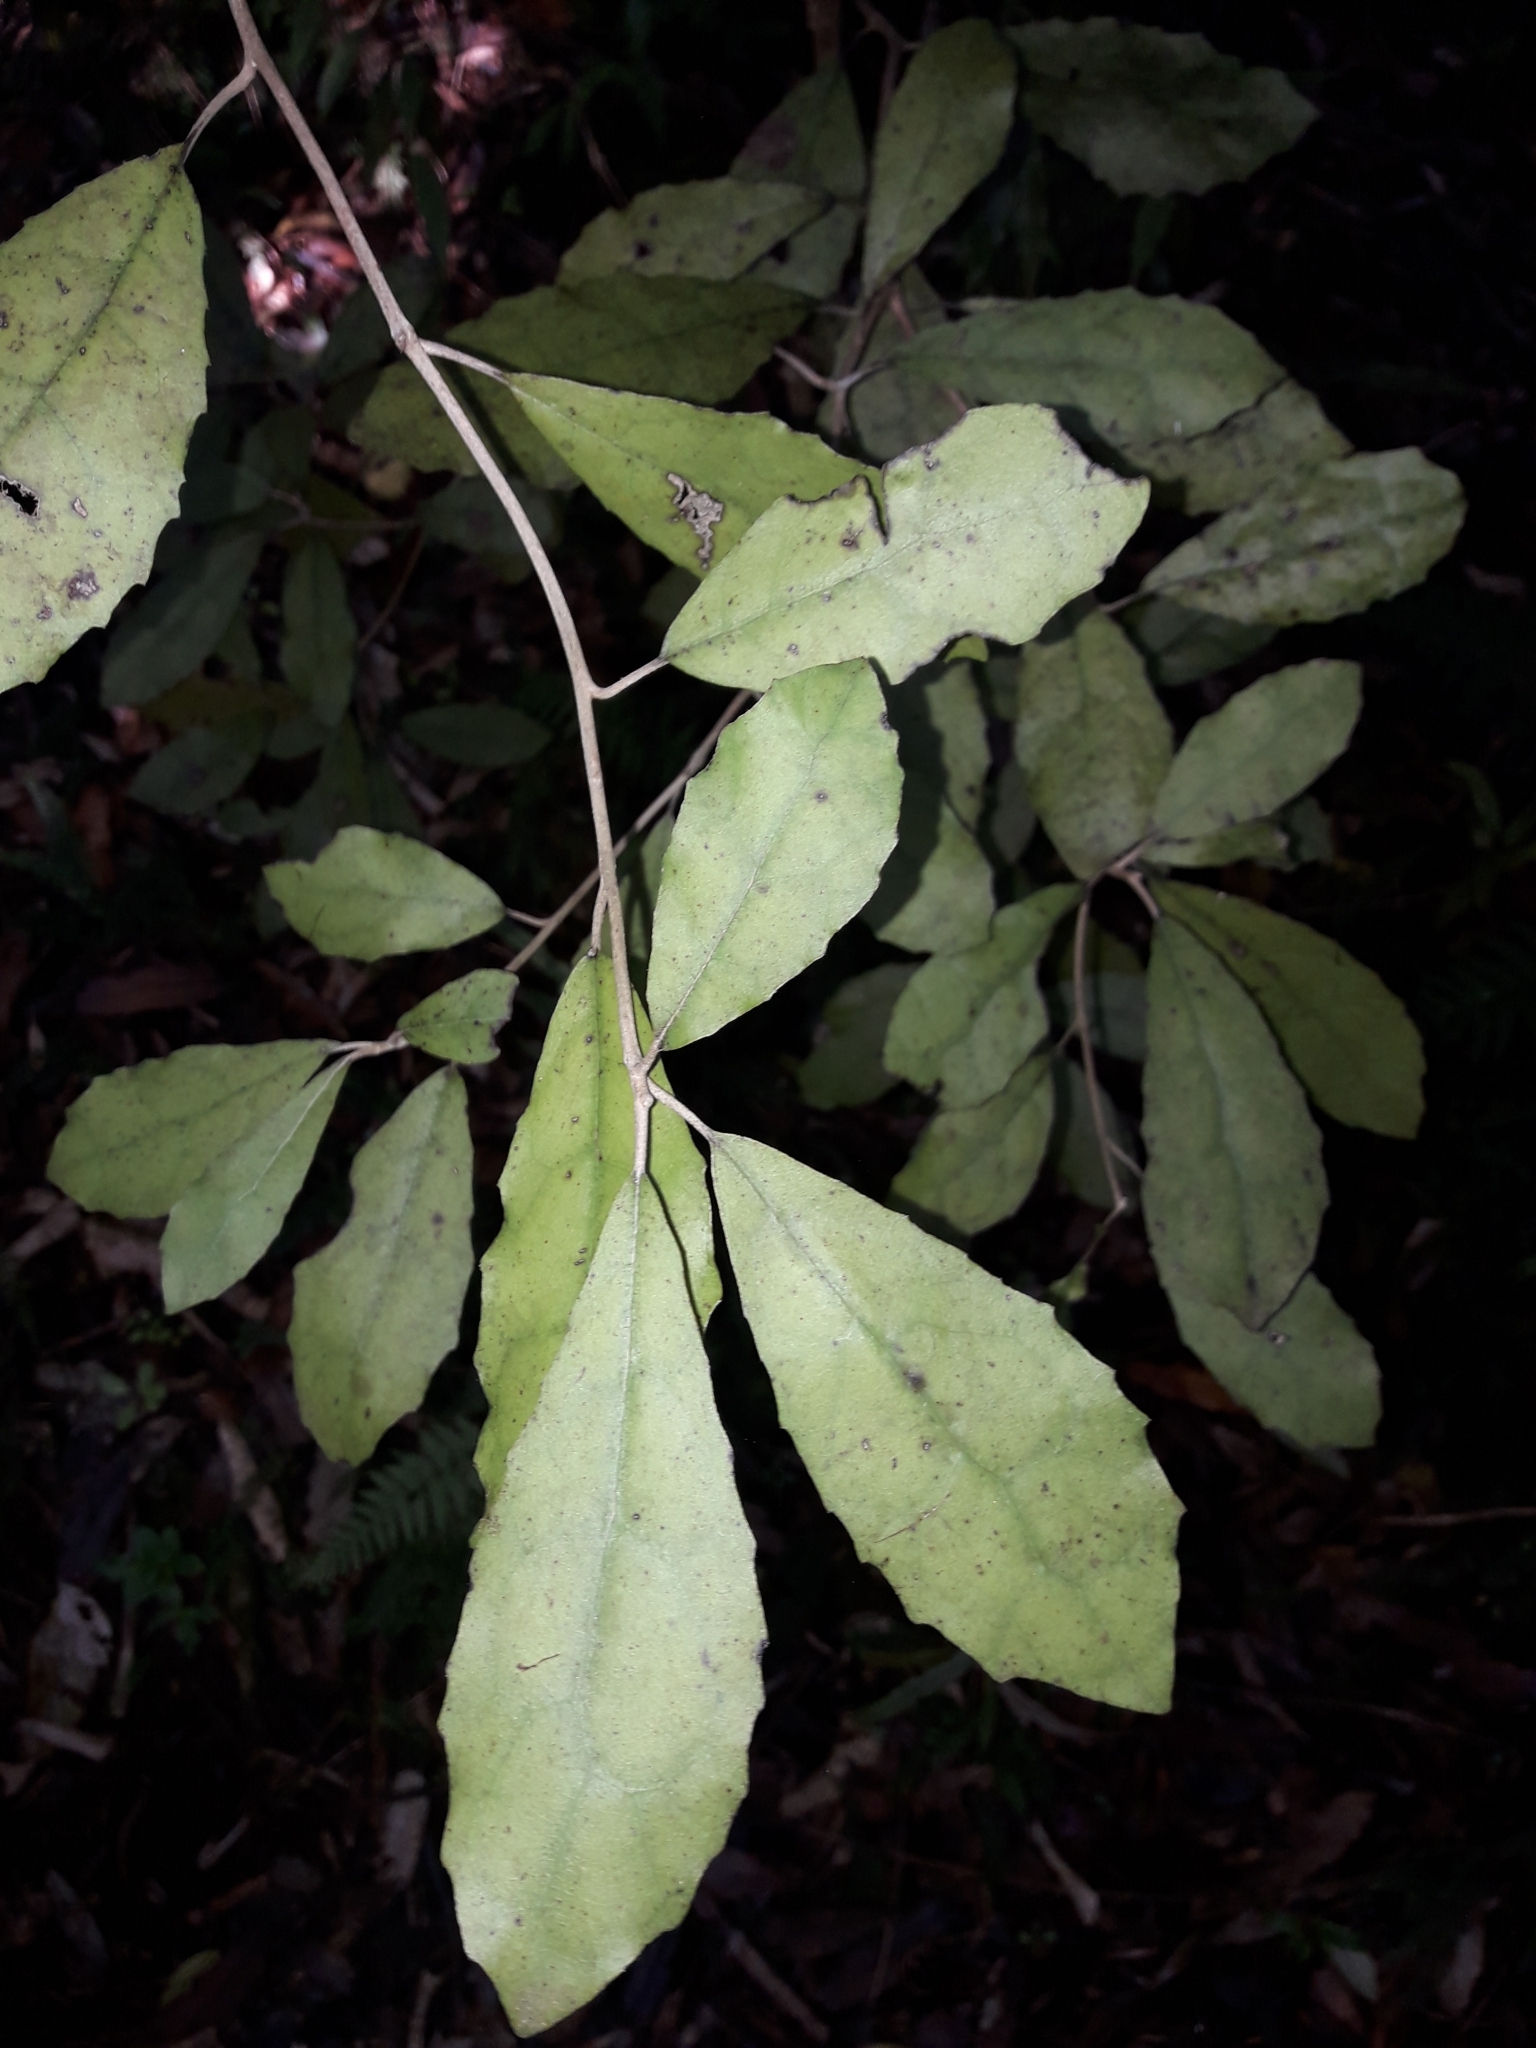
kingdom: Plantae
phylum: Tracheophyta
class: Magnoliopsida
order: Asterales
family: Asteraceae
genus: Olearia
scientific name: Olearia rani
